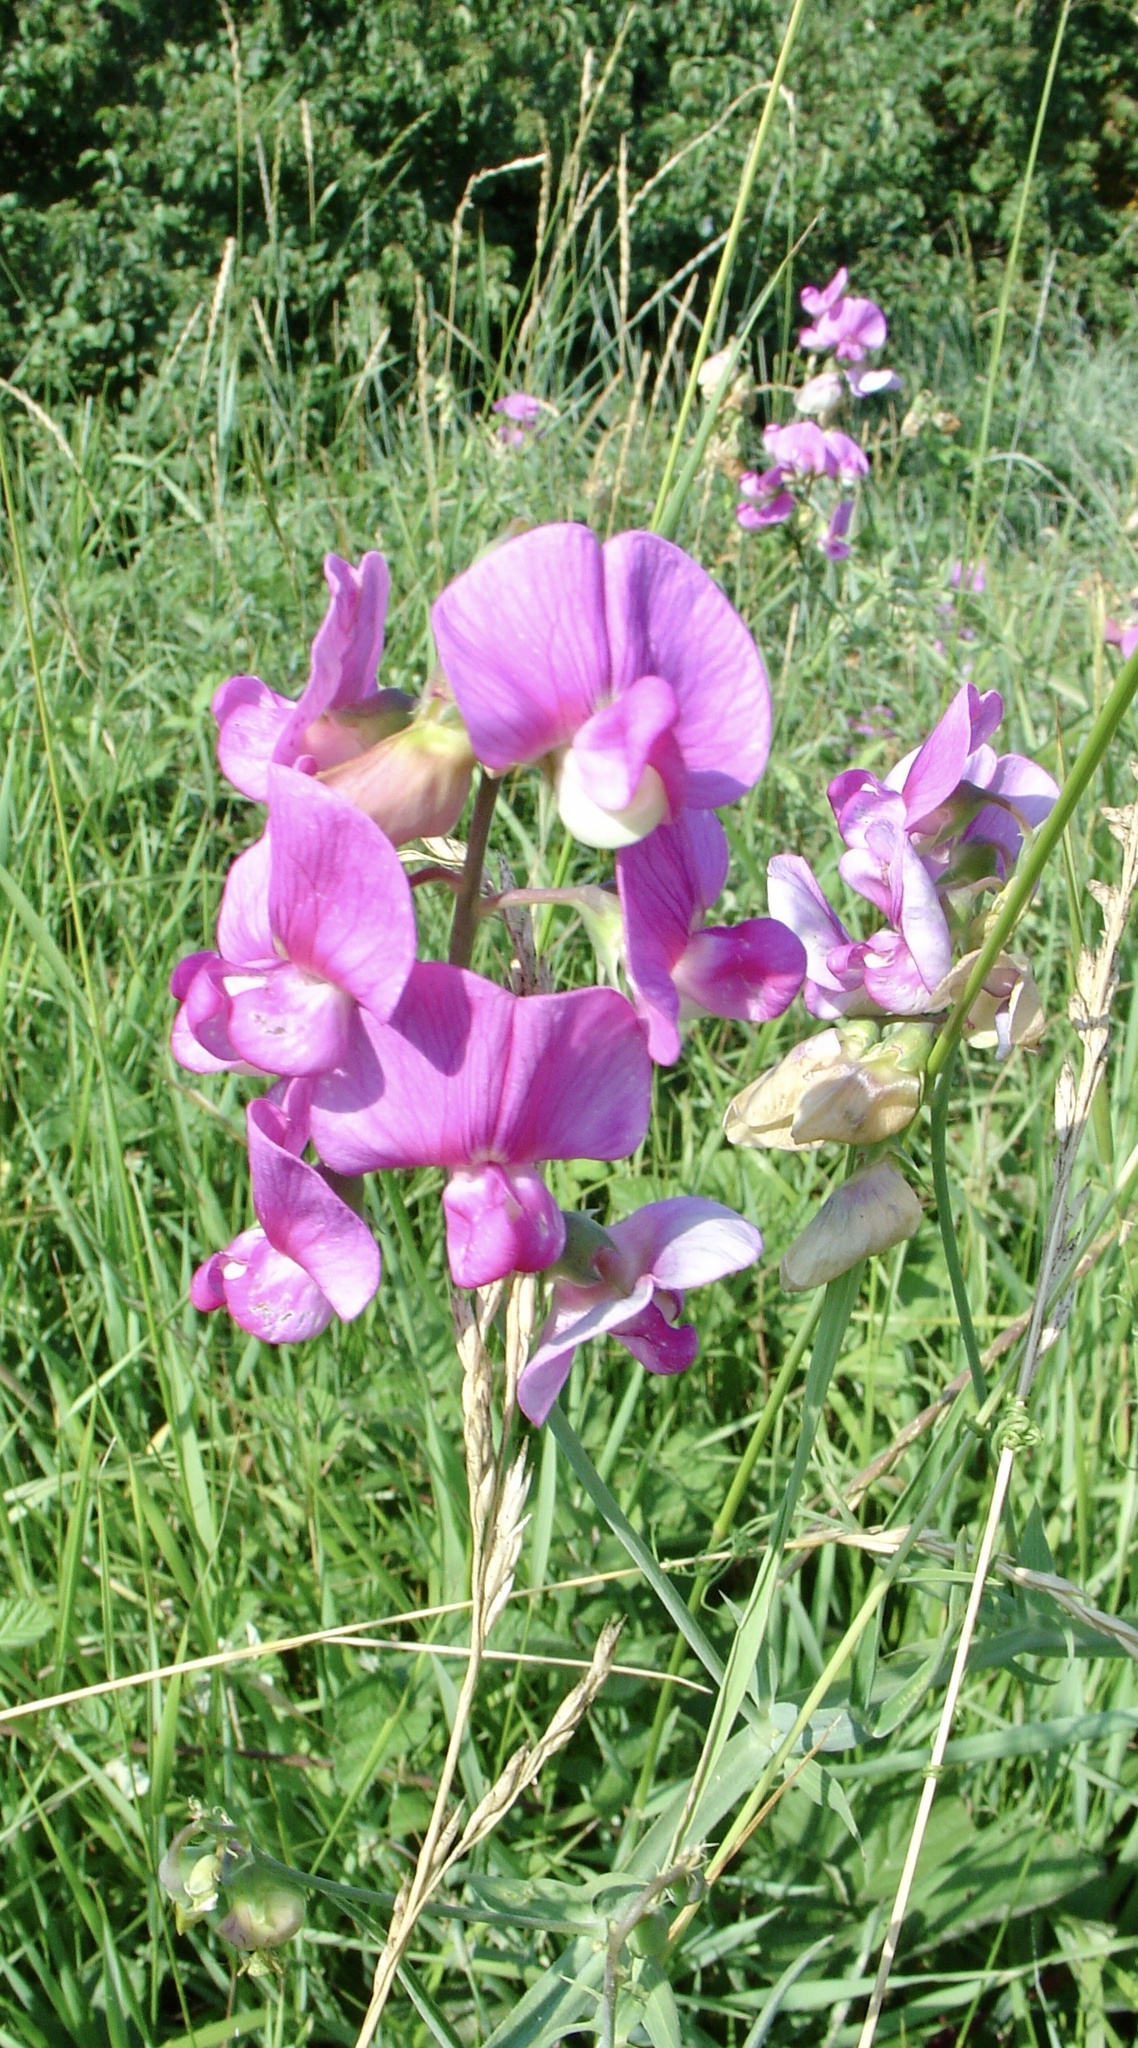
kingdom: Plantae
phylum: Tracheophyta
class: Magnoliopsida
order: Fabales
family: Fabaceae
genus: Lathyrus
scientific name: Lathyrus latifolius
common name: Perennial pea
